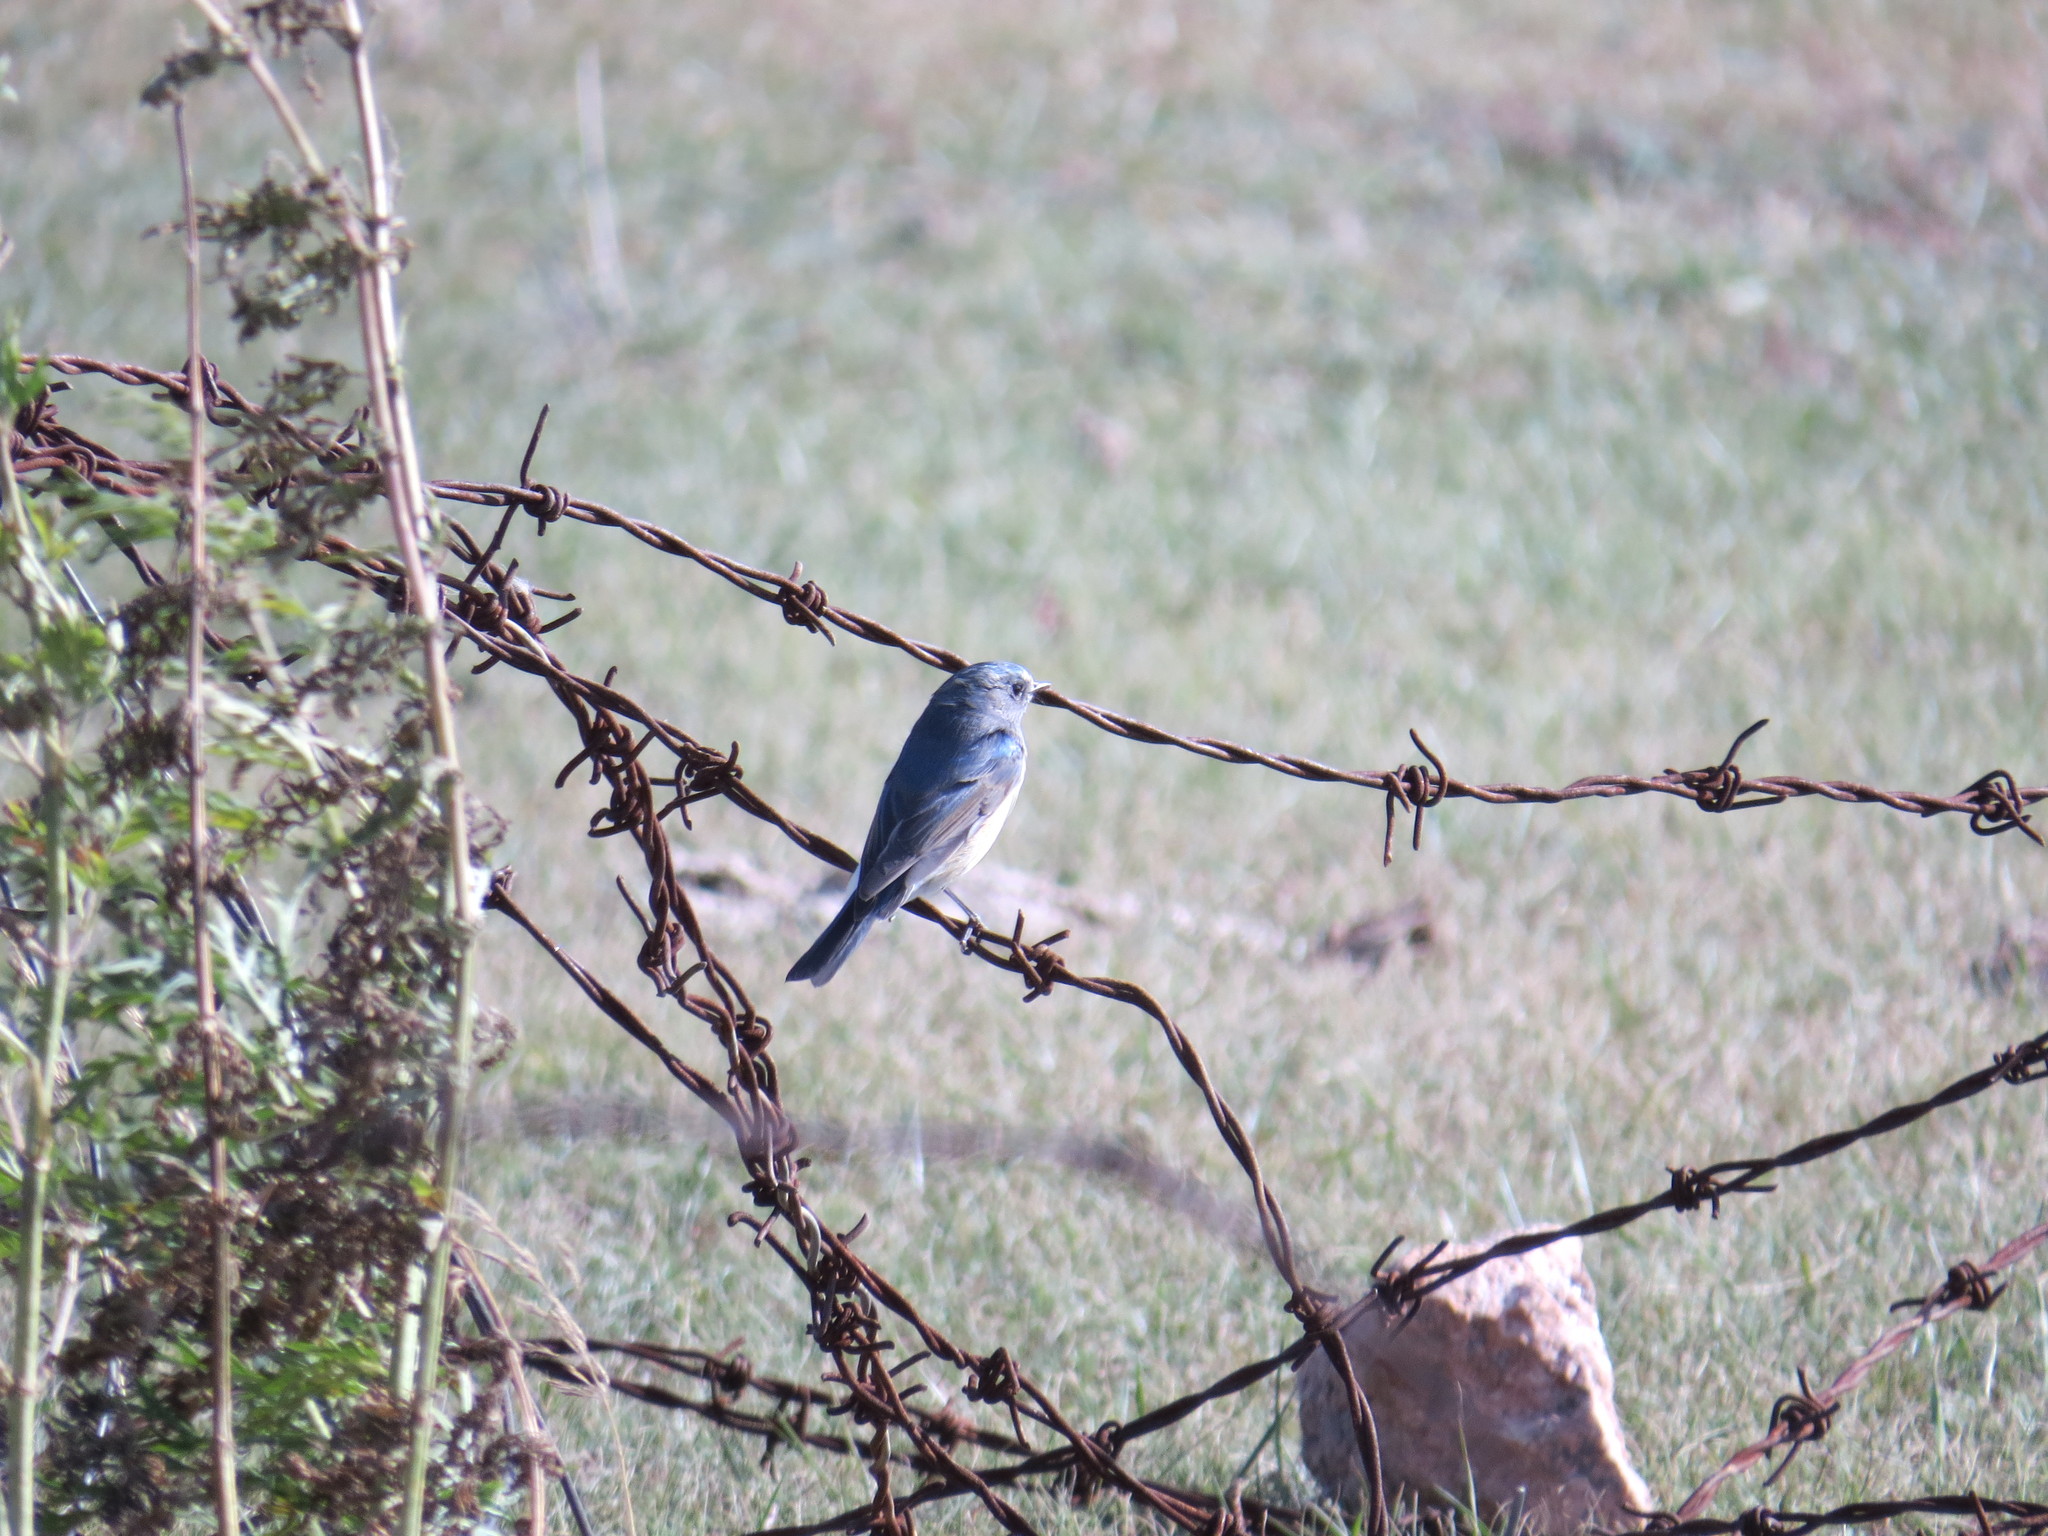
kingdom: Animalia
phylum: Chordata
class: Aves
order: Passeriformes
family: Muscicapidae
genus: Tarsiger
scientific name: Tarsiger cyanurus
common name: Red-flanked bluetail
